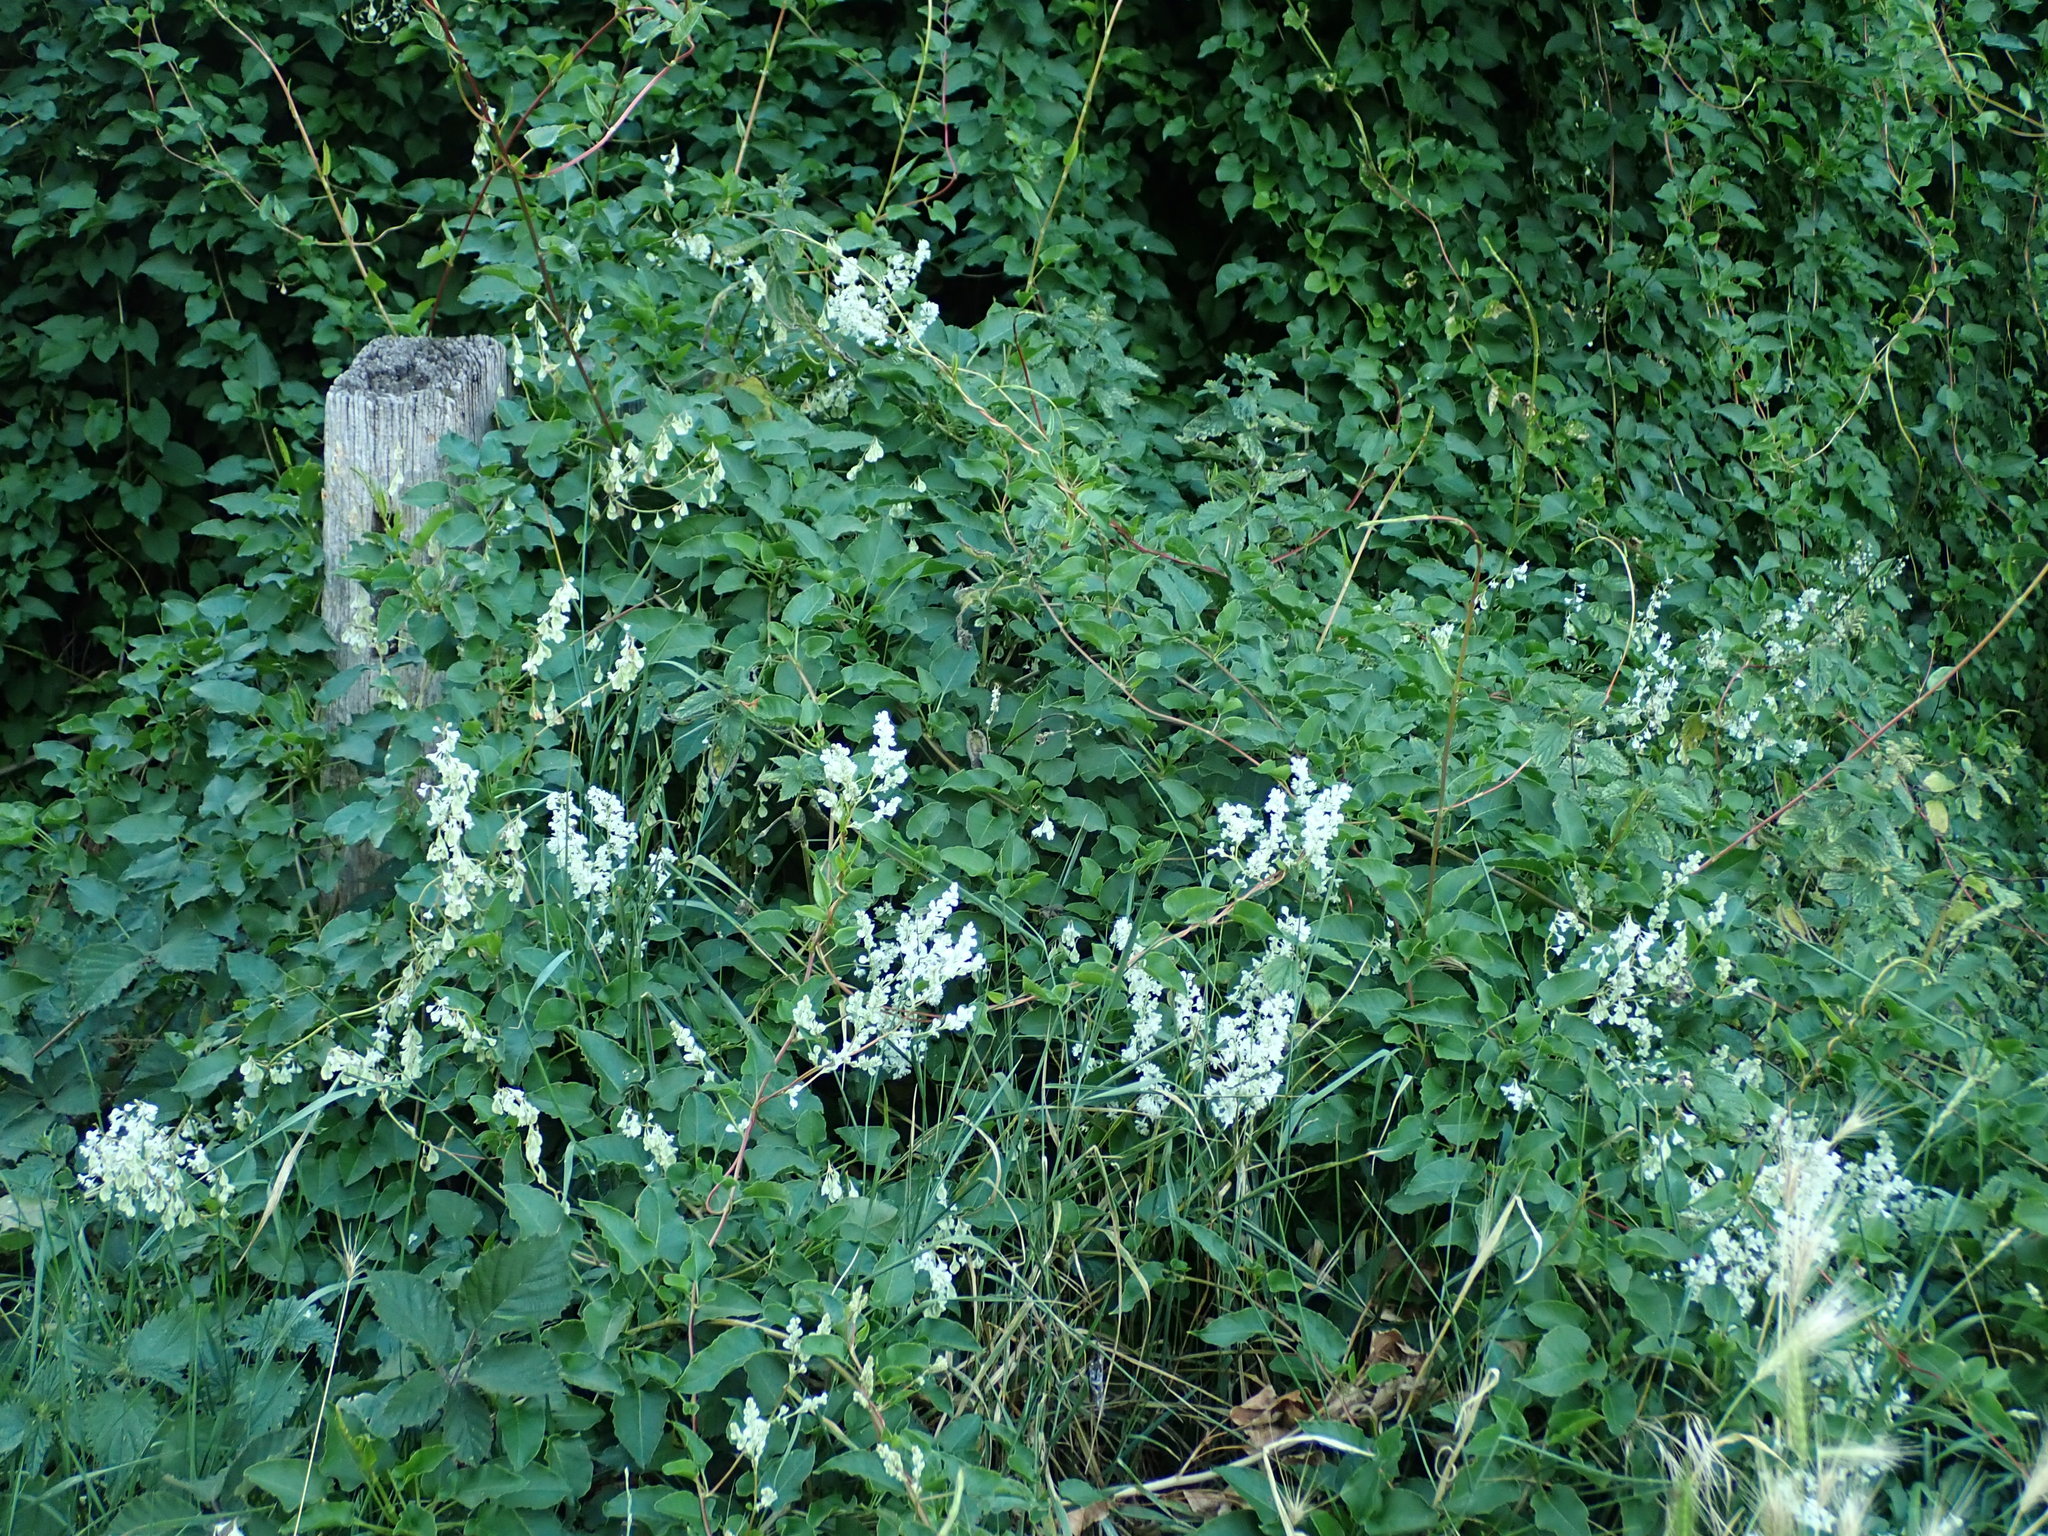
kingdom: Plantae
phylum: Tracheophyta
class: Magnoliopsida
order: Caryophyllales
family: Polygonaceae
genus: Fallopia
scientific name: Fallopia baldschuanica
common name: Russian-vine
